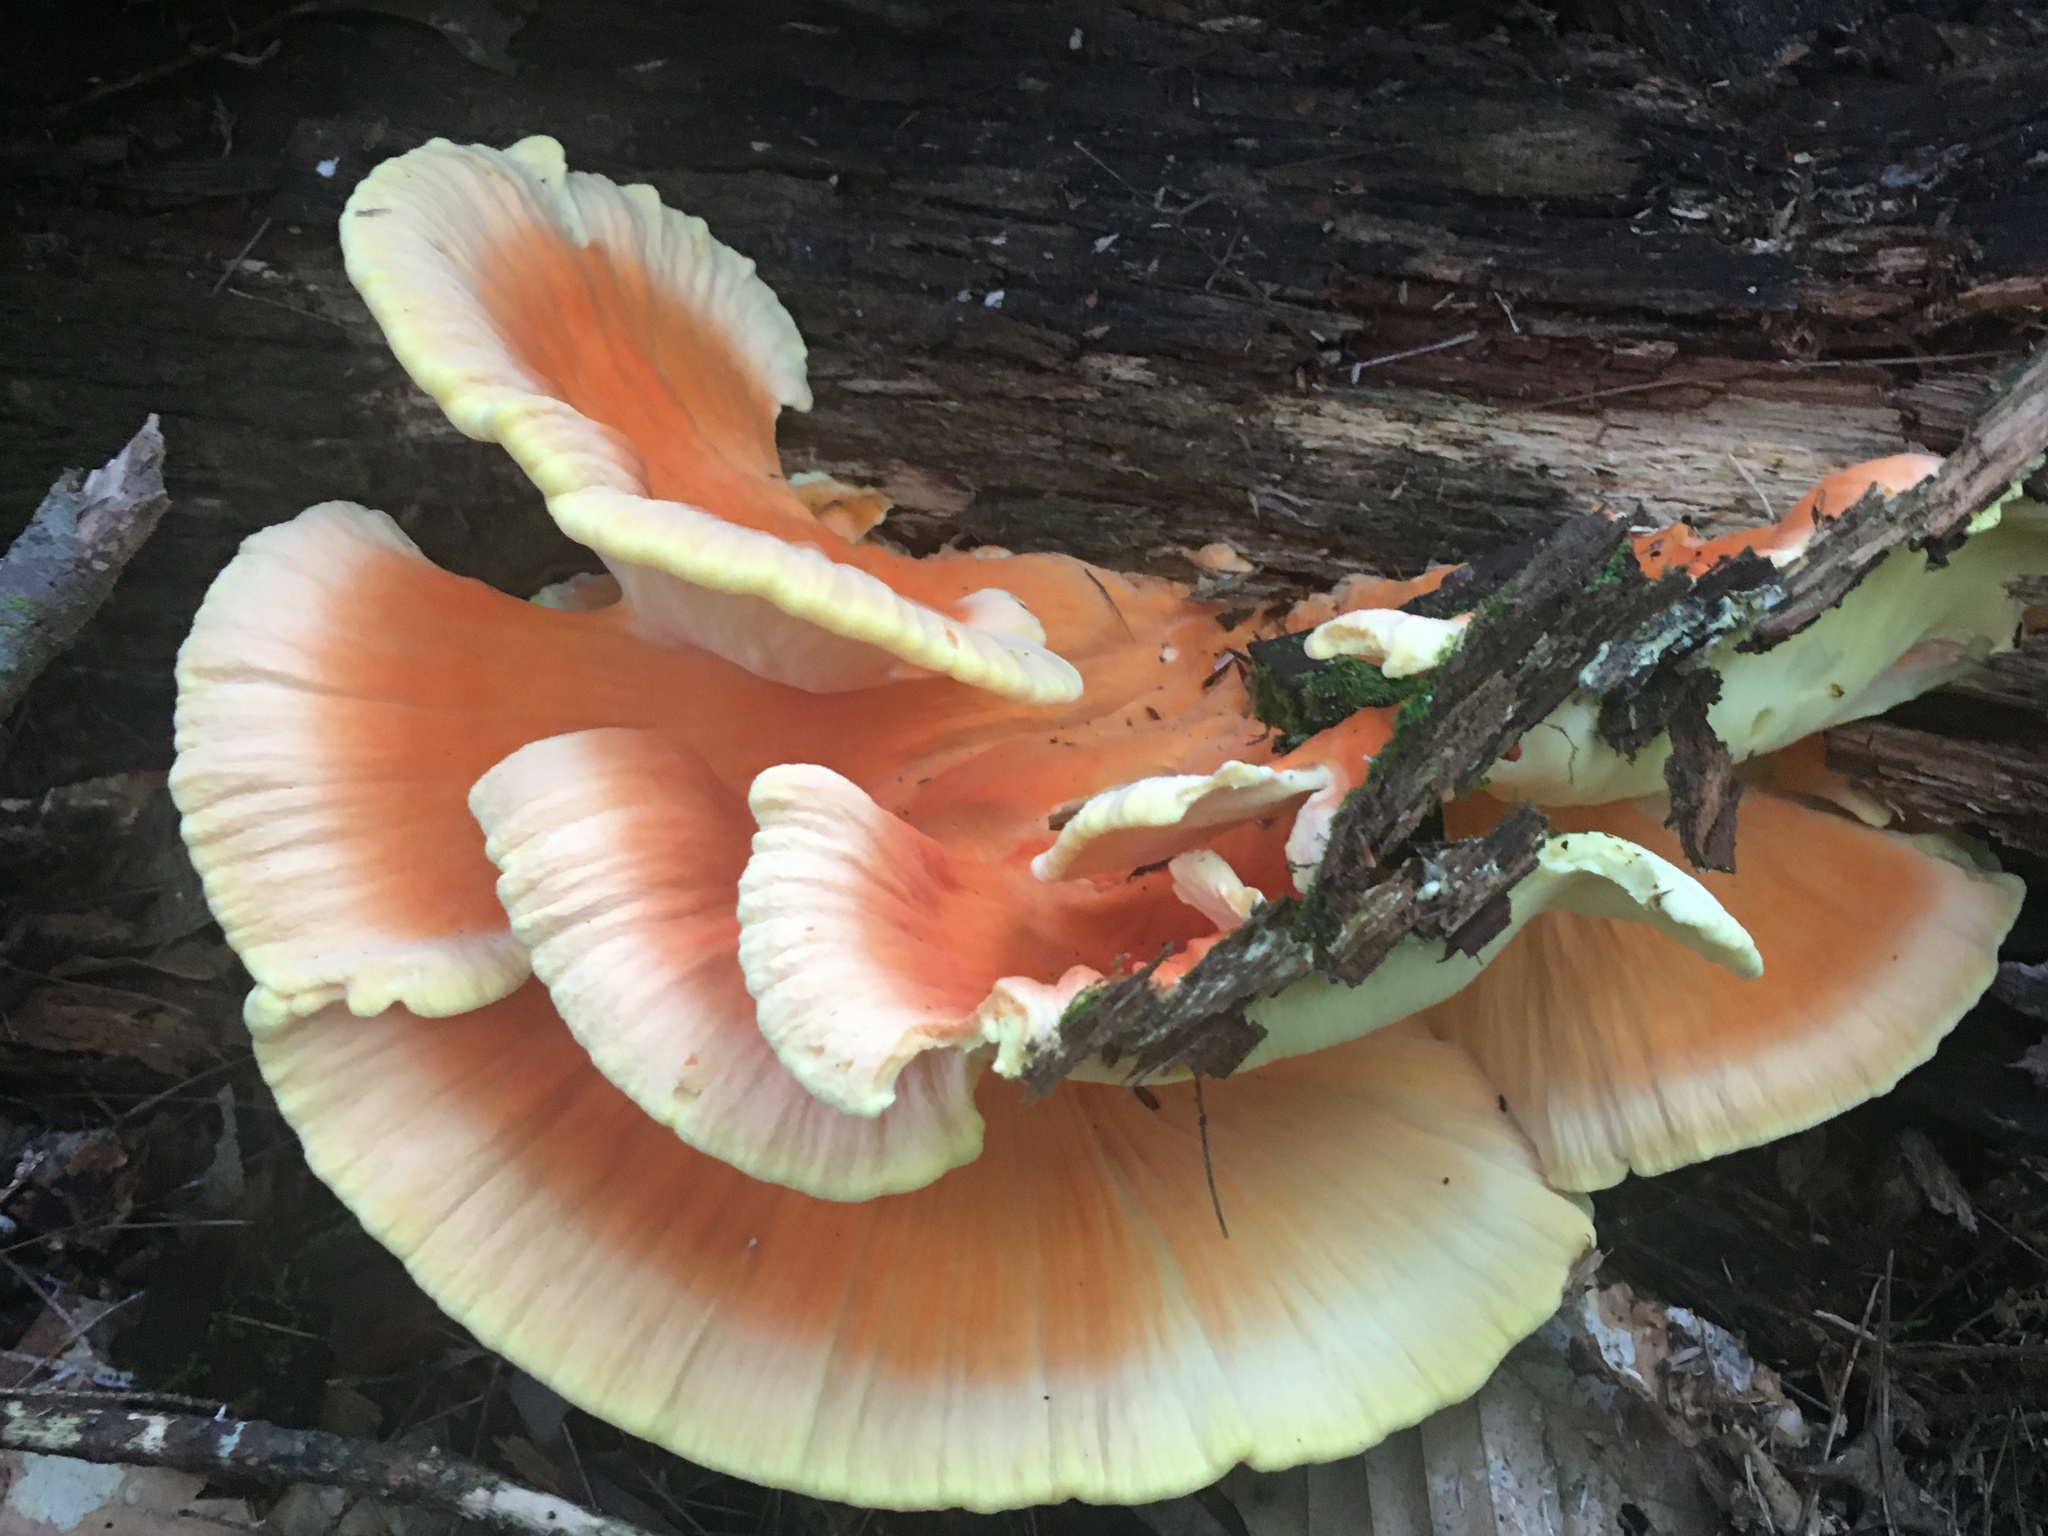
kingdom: Fungi
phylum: Basidiomycota
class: Agaricomycetes
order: Polyporales
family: Laetiporaceae
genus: Laetiporus
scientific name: Laetiporus sulphureus
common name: Chicken of the woods
